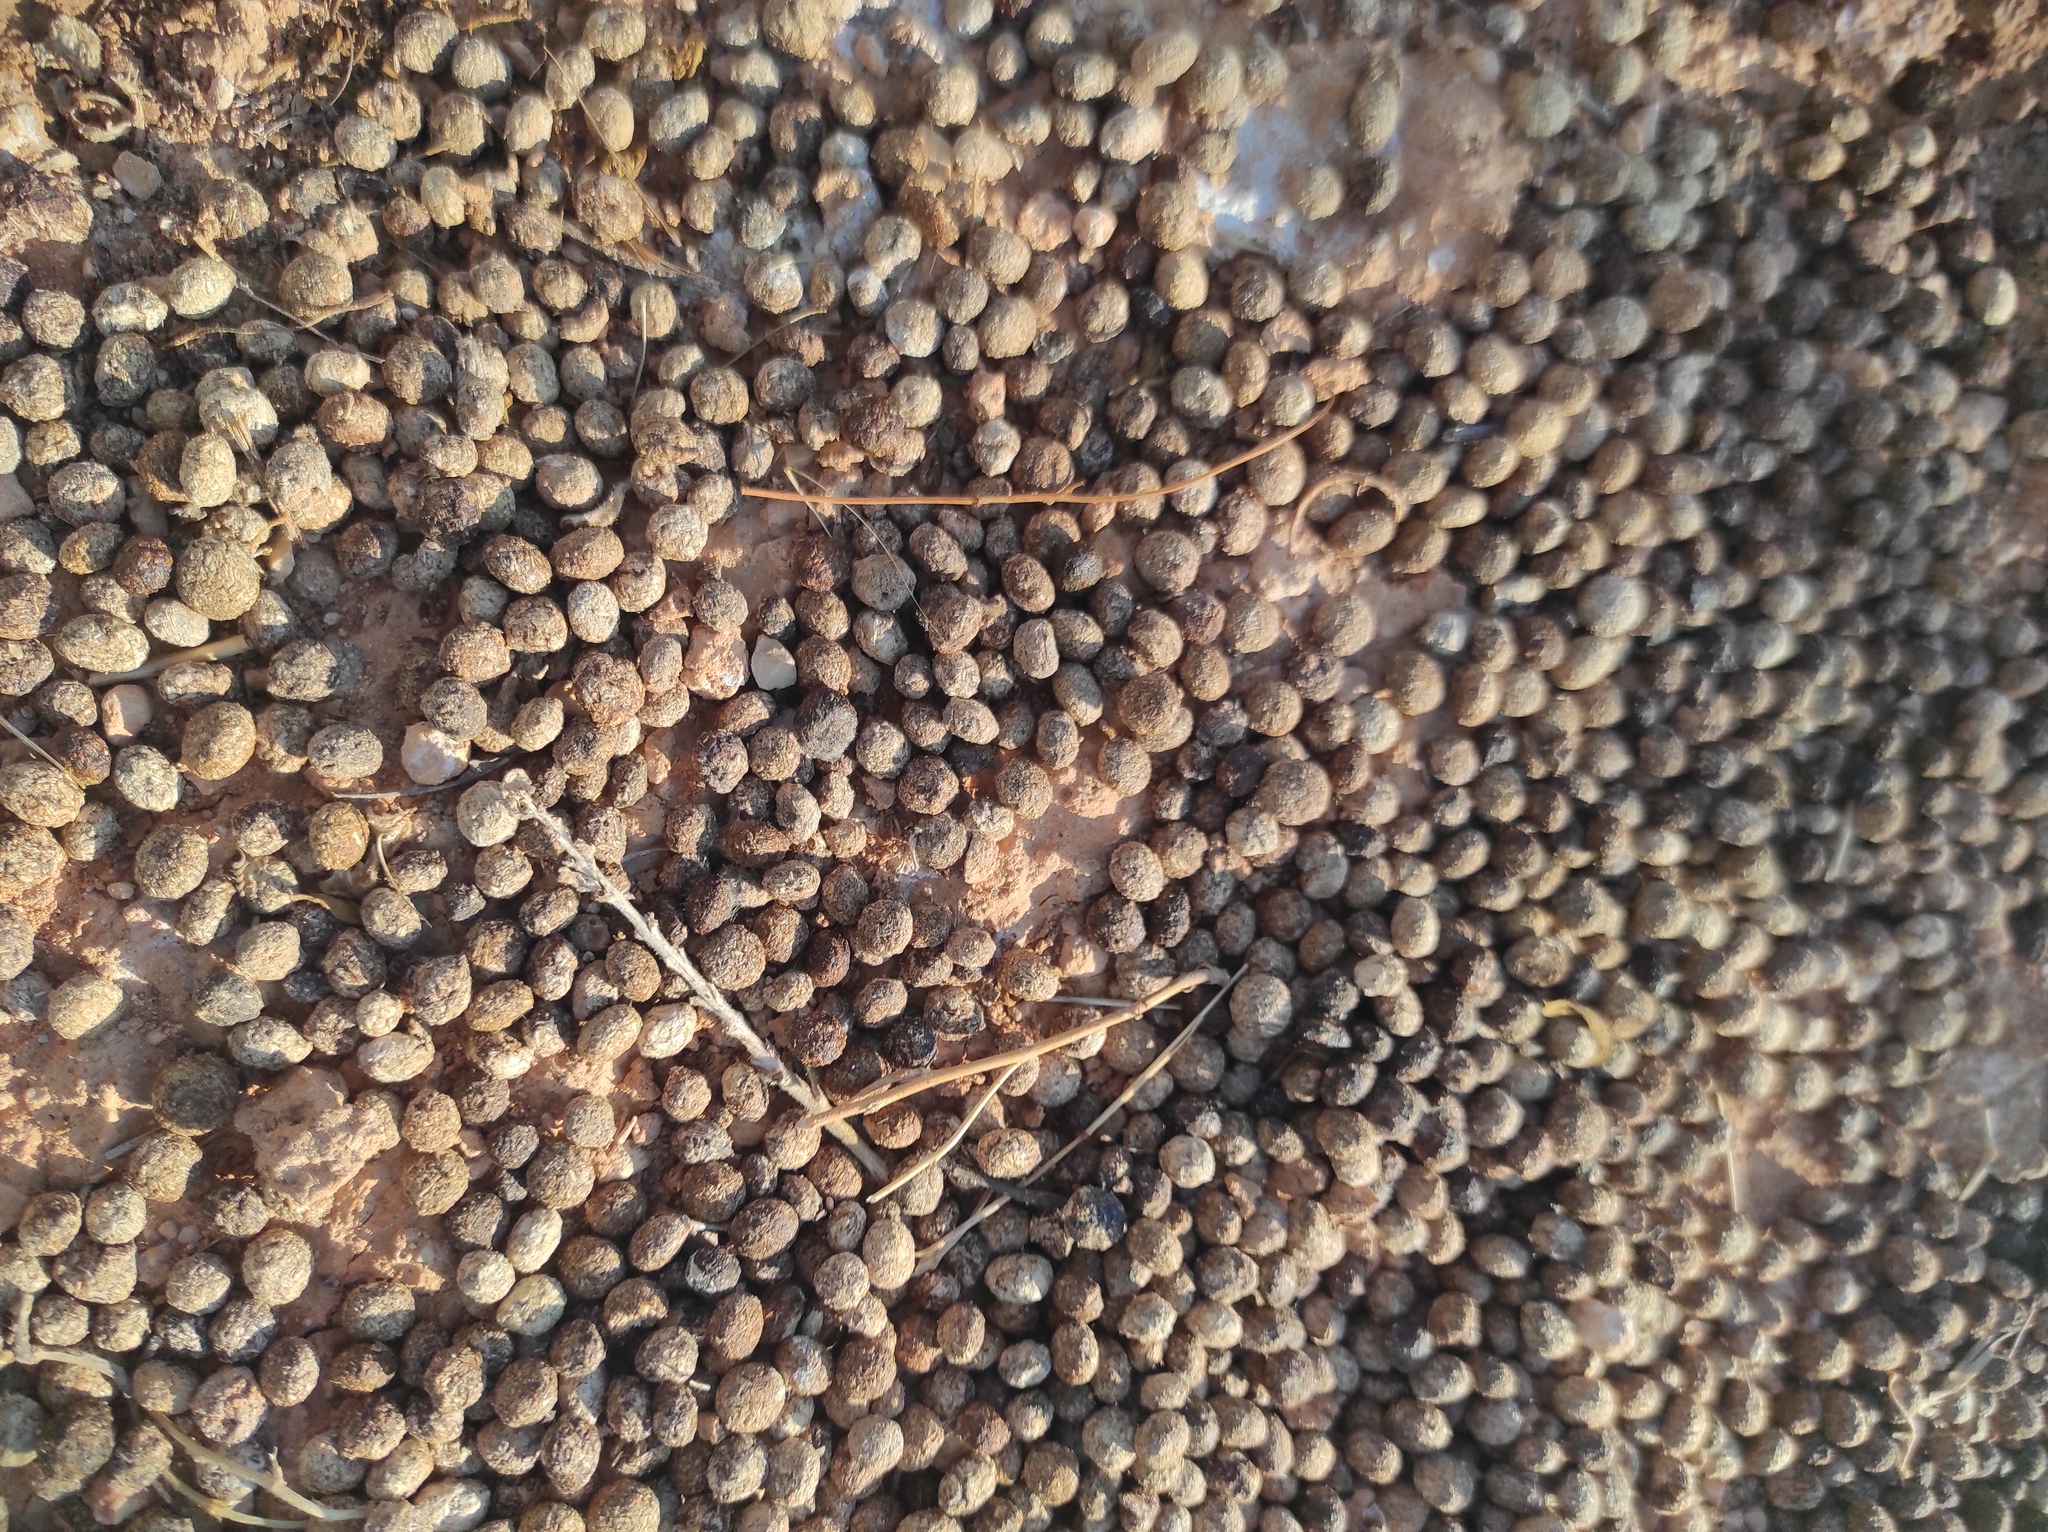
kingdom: Animalia
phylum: Chordata
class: Mammalia
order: Lagomorpha
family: Leporidae
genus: Oryctolagus
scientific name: Oryctolagus cuniculus
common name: European rabbit
